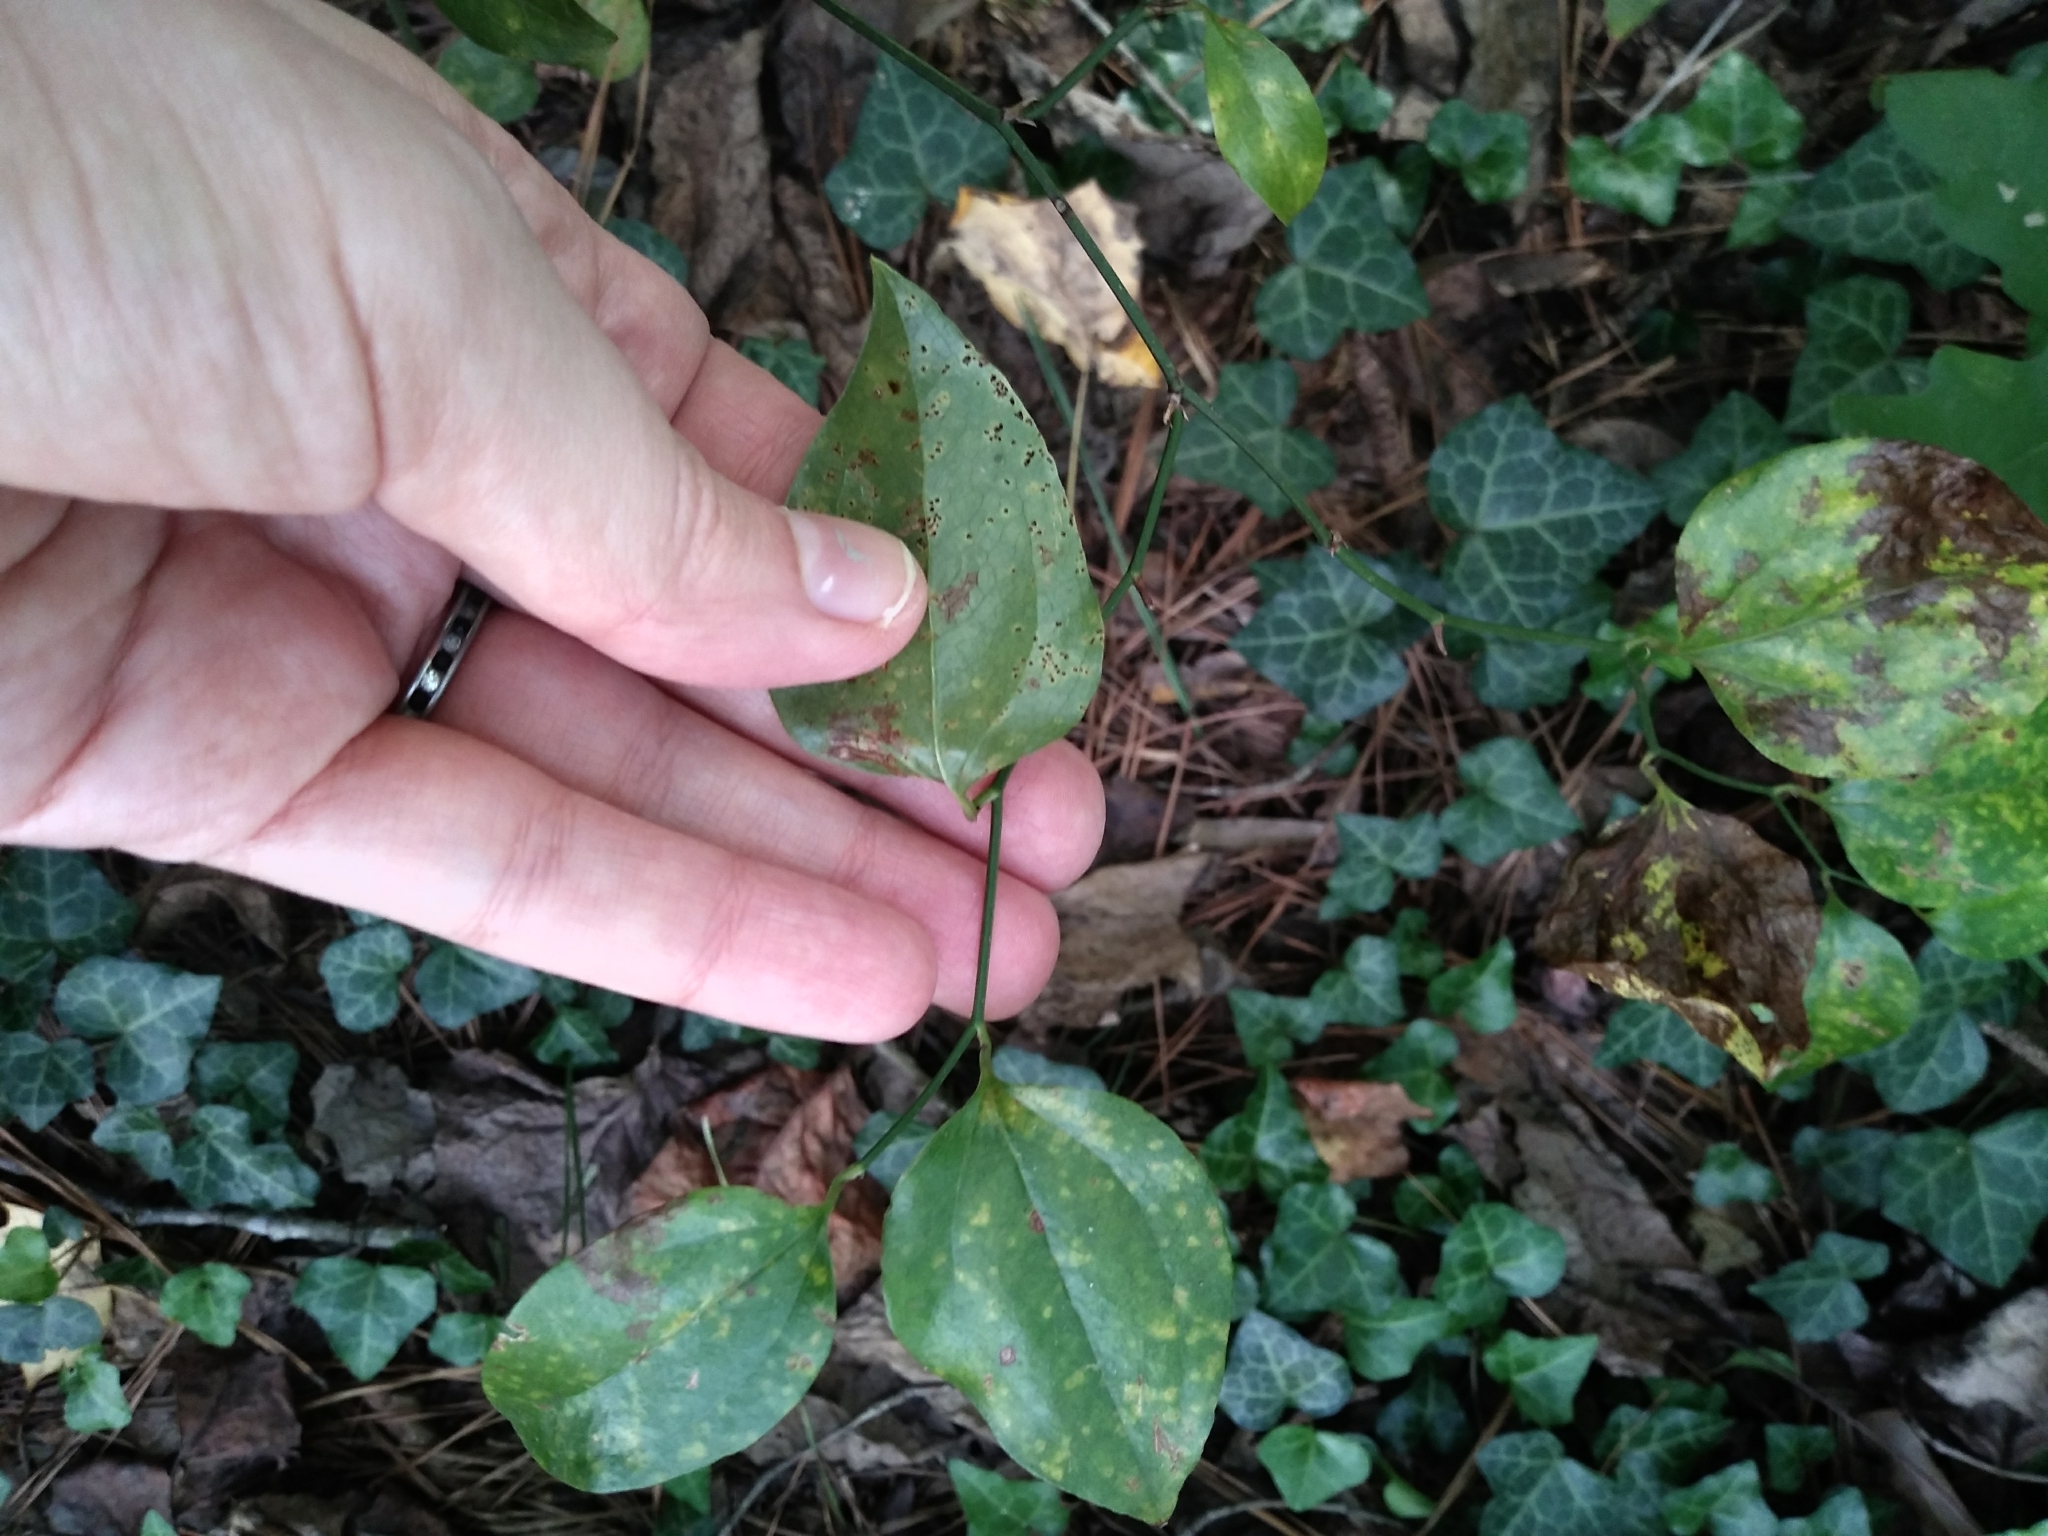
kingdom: Plantae
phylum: Tracheophyta
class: Liliopsida
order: Liliales
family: Smilacaceae
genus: Smilax
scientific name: Smilax rotundifolia
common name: Bullbriar
